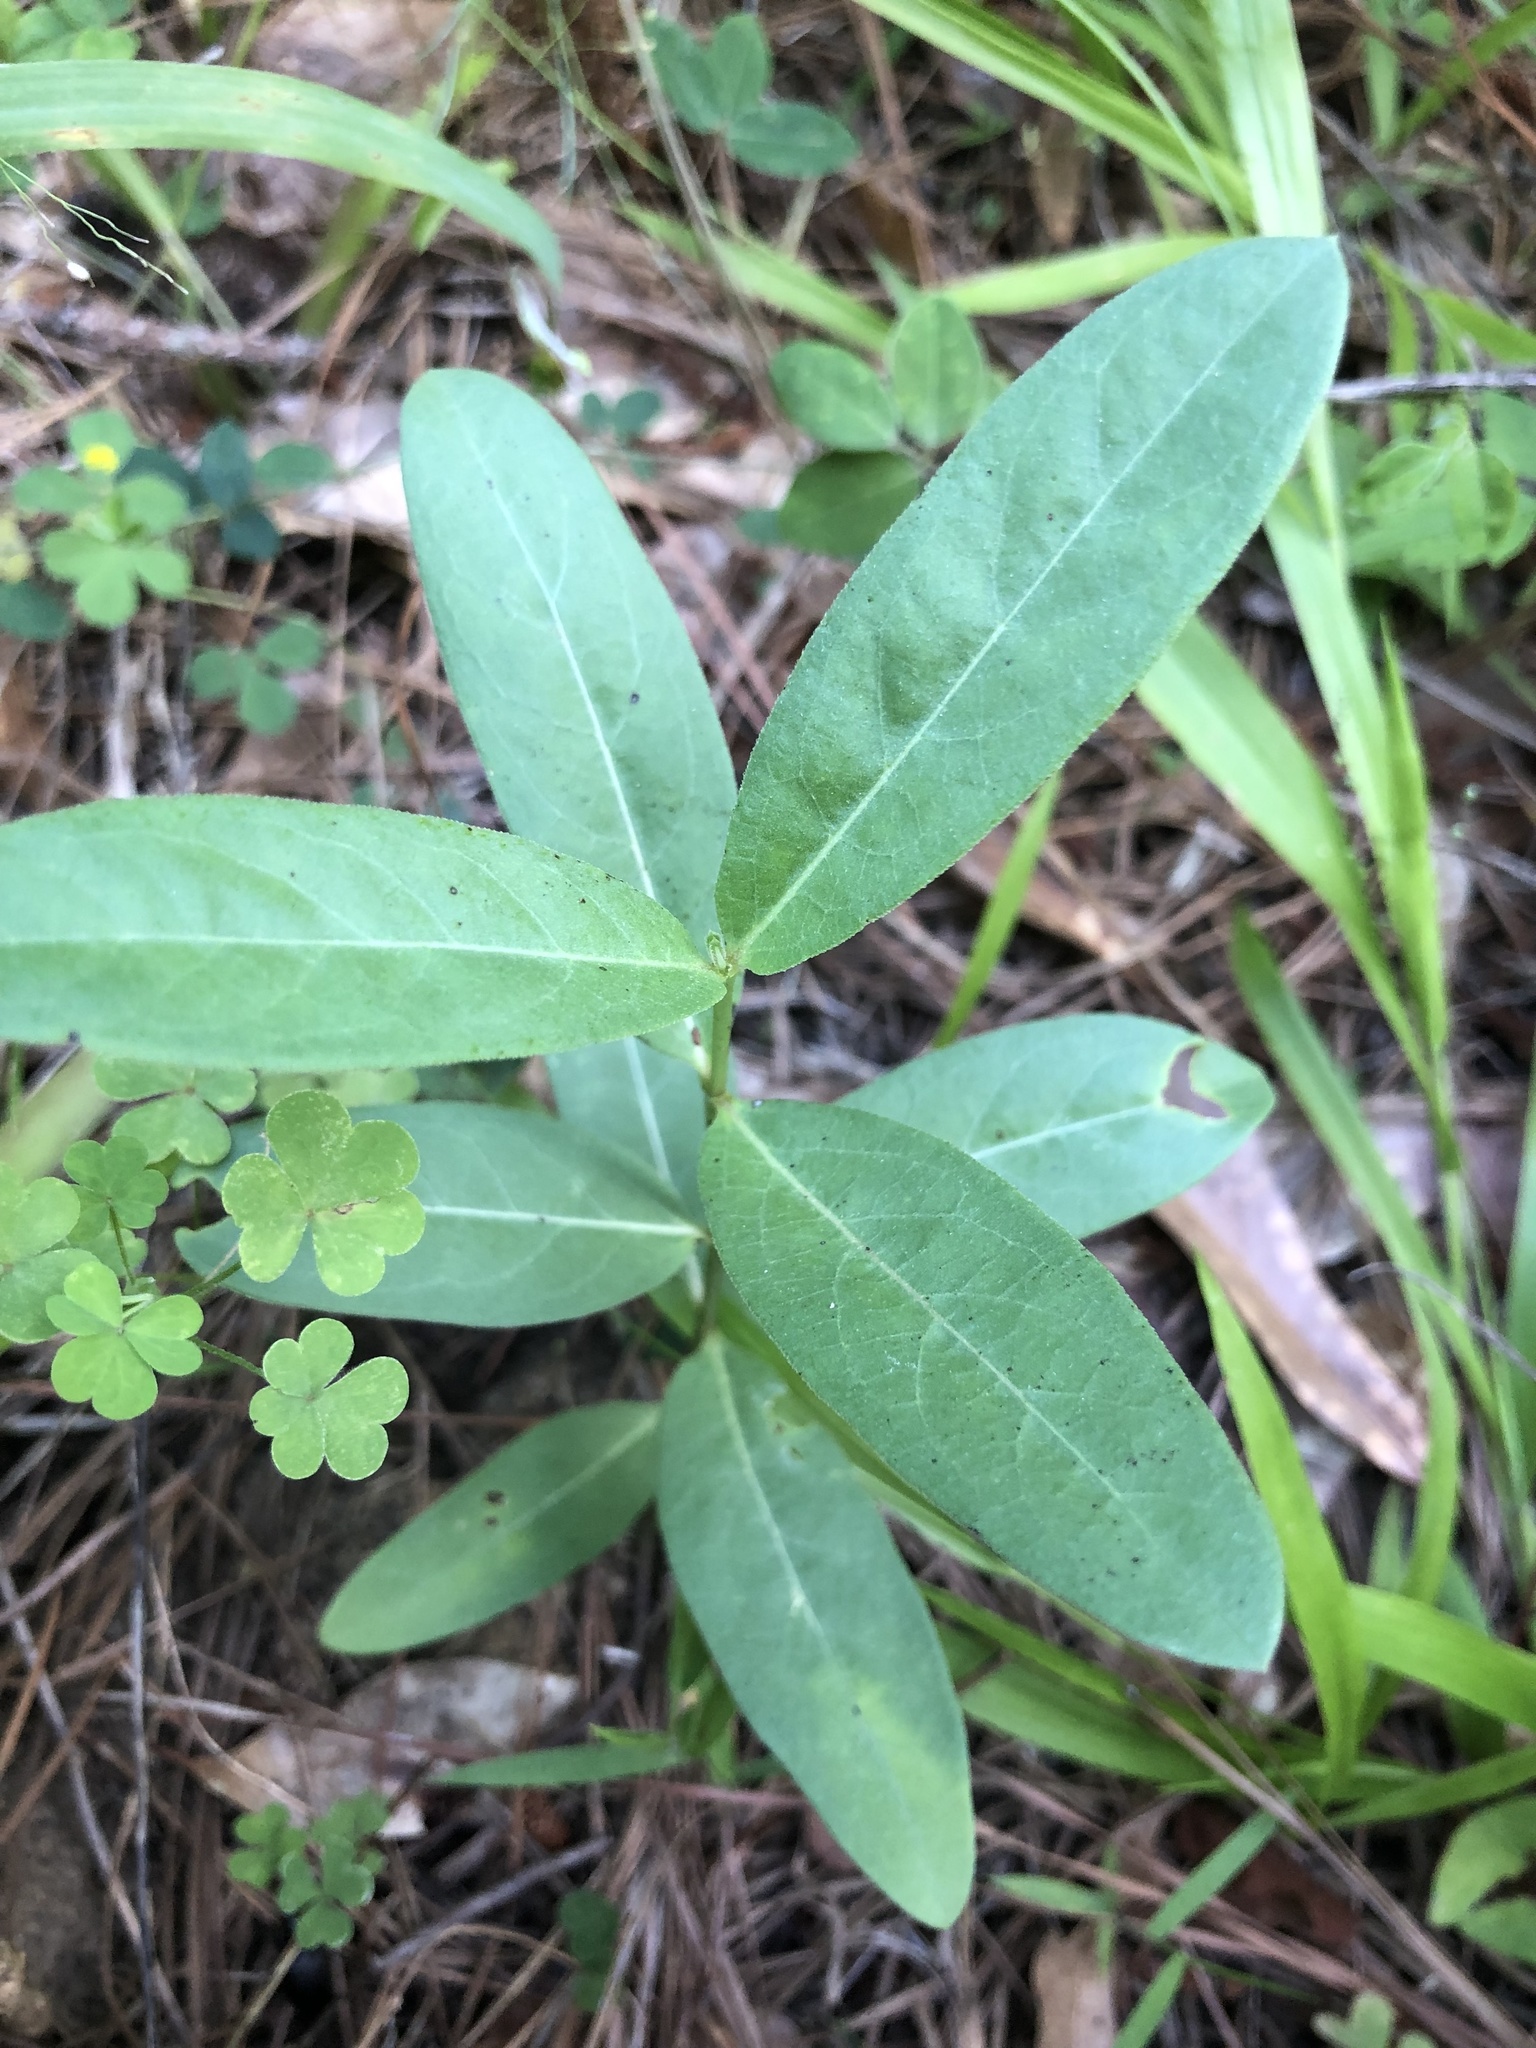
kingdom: Plantae
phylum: Tracheophyta
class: Magnoliopsida
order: Gentianales
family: Apocynaceae
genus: Asclepias
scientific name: Asclepias viridiflora
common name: Green comet milkweed
